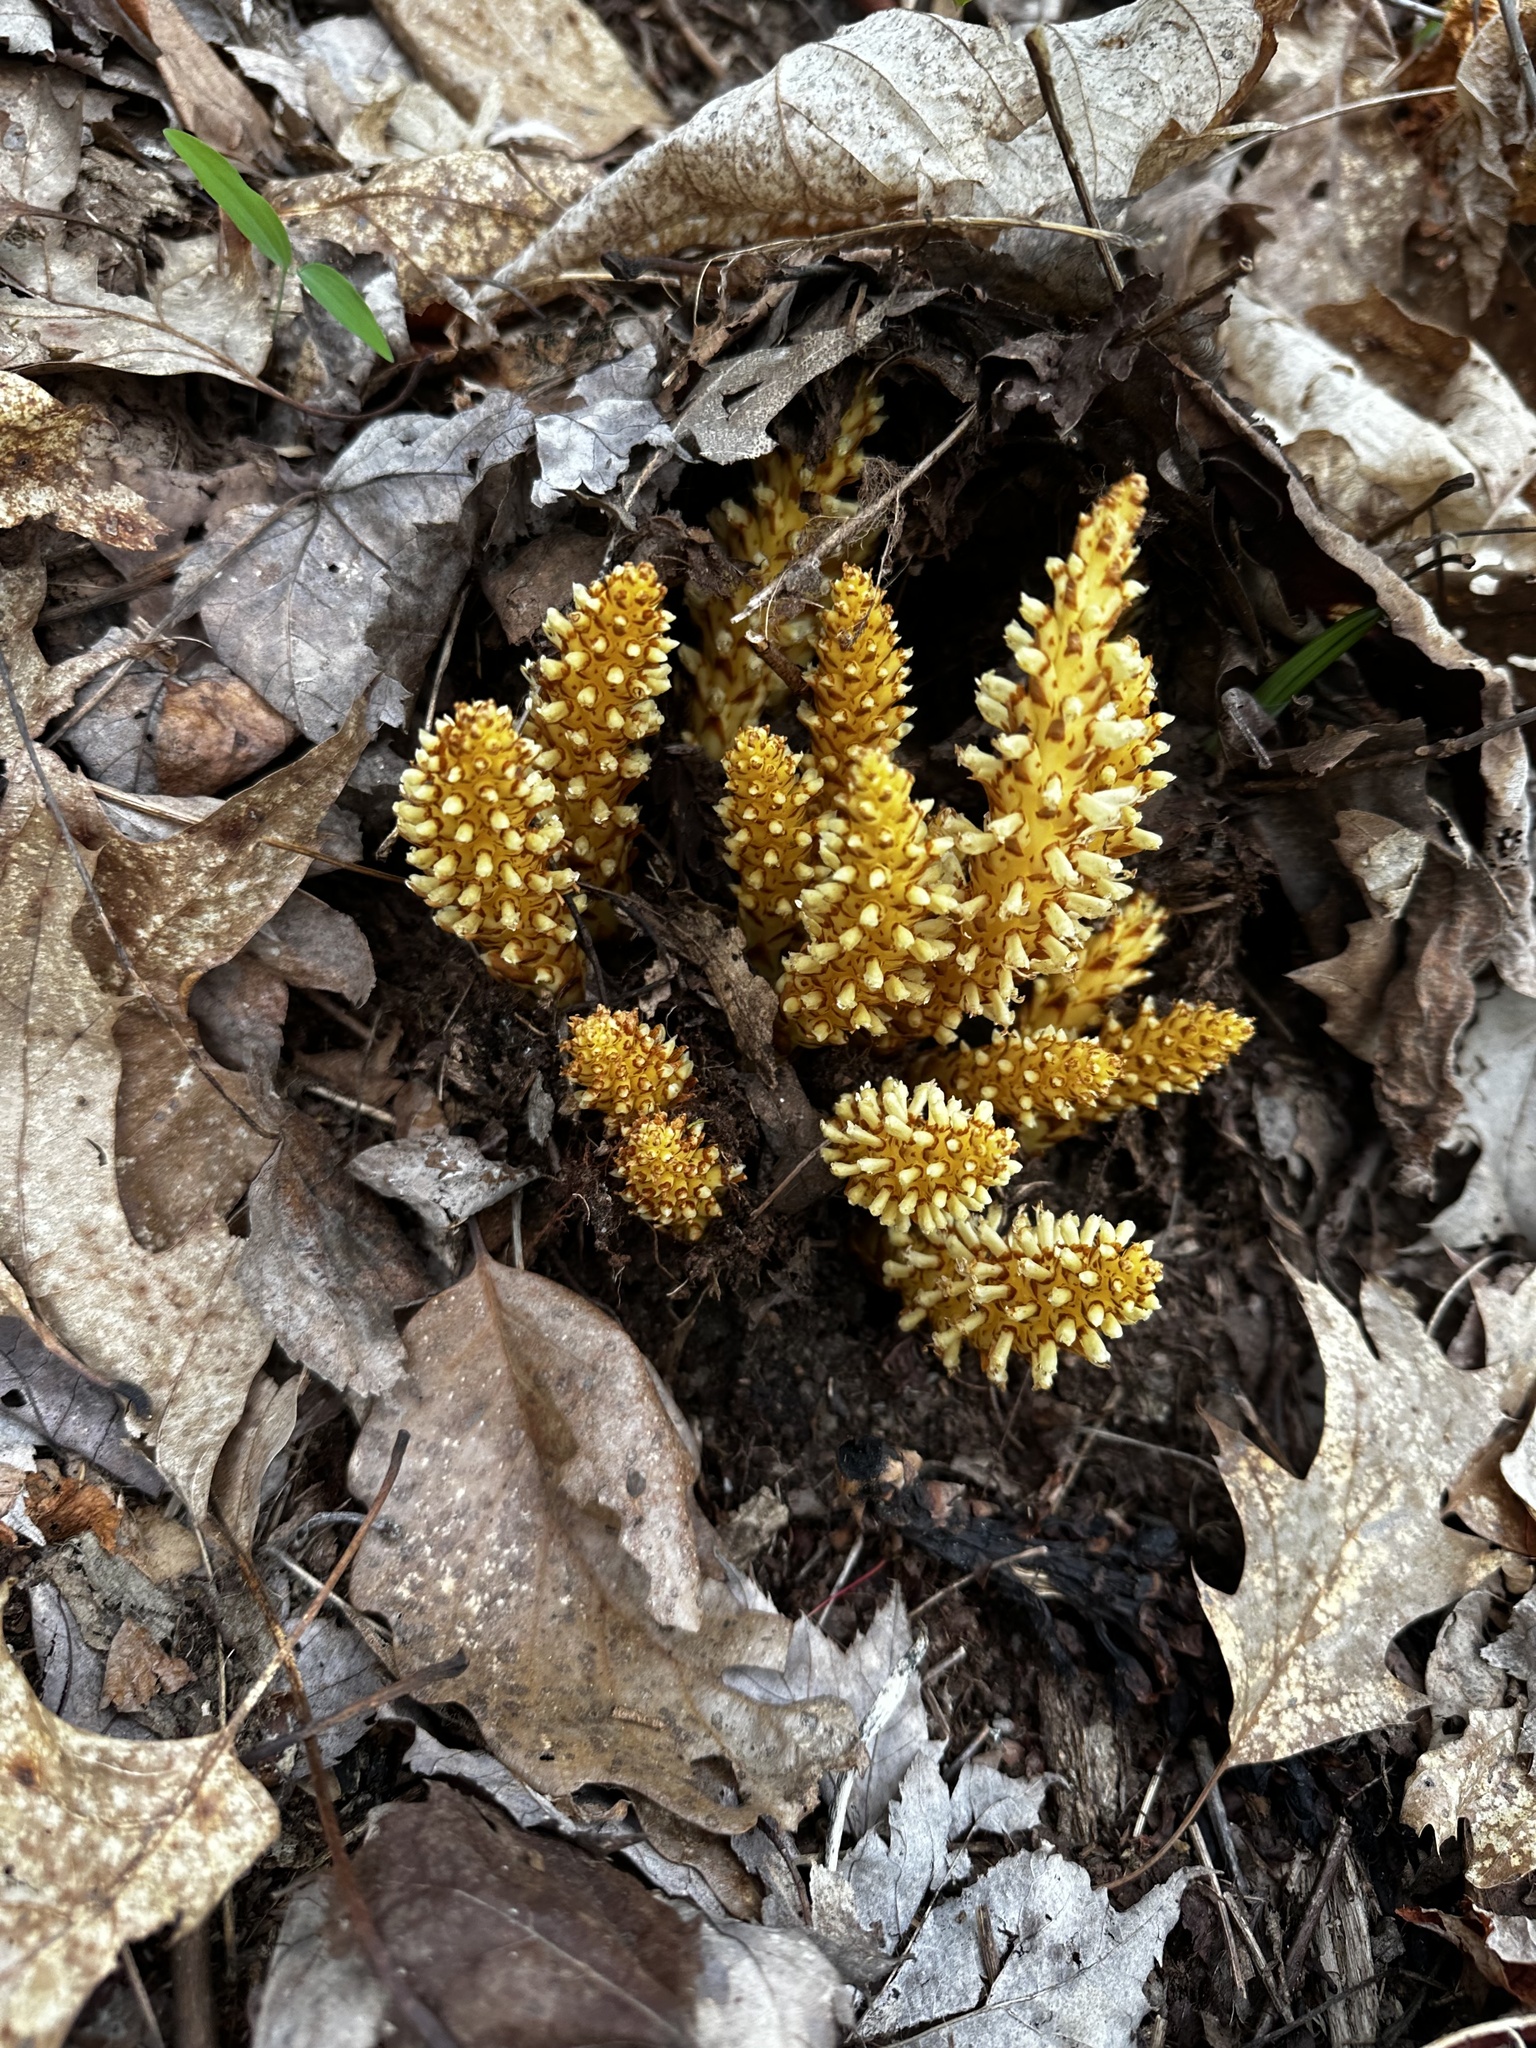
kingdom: Plantae
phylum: Tracheophyta
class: Magnoliopsida
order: Lamiales
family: Orobanchaceae
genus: Conopholis
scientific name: Conopholis americana
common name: American cancer-root
